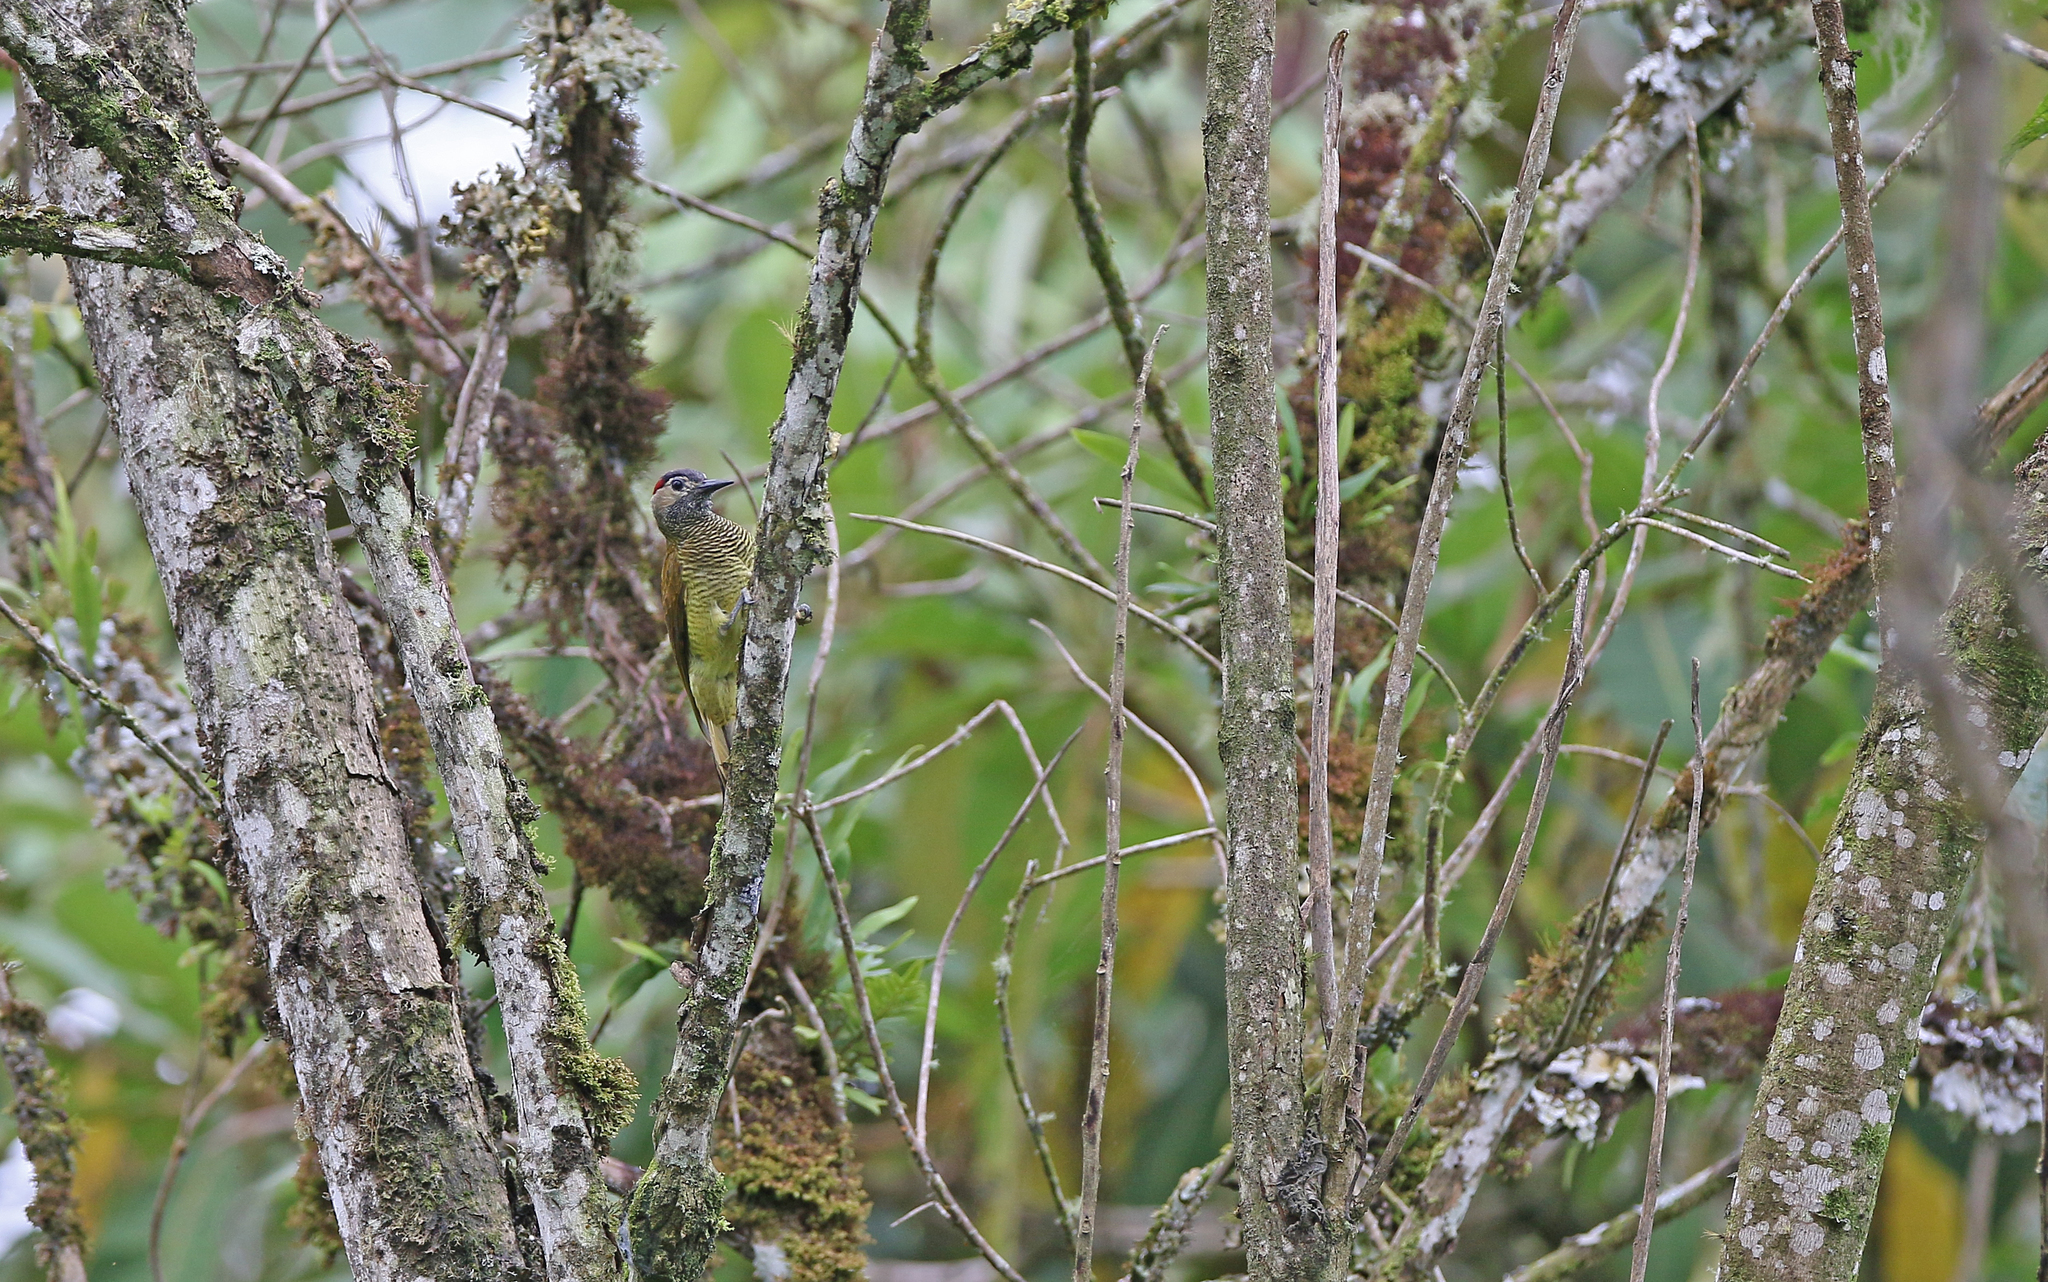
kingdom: Animalia
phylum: Chordata
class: Aves
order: Piciformes
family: Picidae
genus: Colaptes
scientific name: Colaptes rubiginosus
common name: Golden-olive woodpecker
